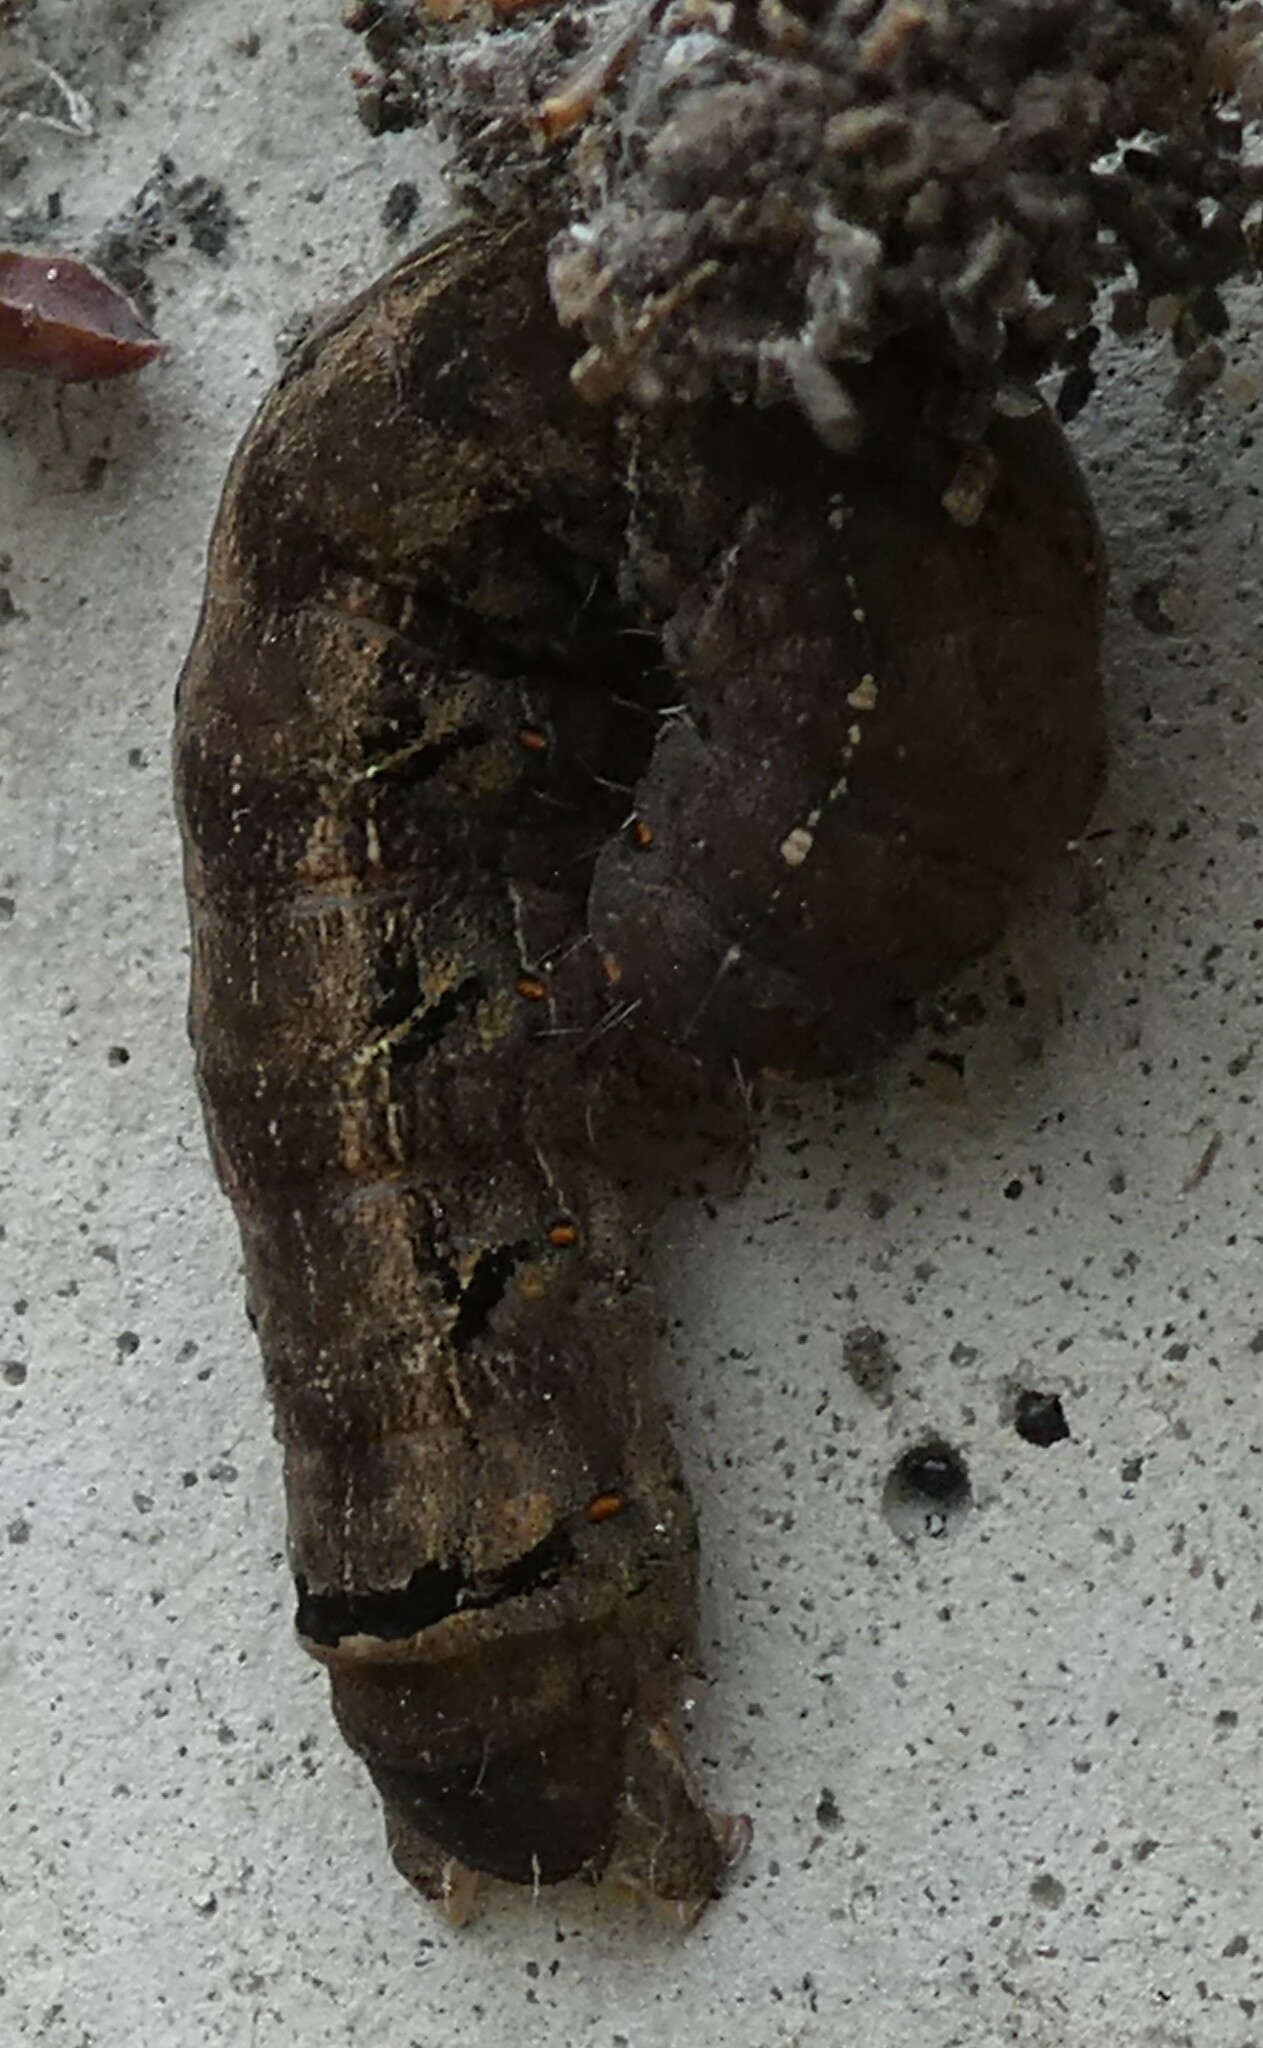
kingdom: Animalia
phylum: Arthropoda
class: Insecta
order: Lepidoptera
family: Noctuidae
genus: Mormo
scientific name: Mormo maura
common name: Old lady
